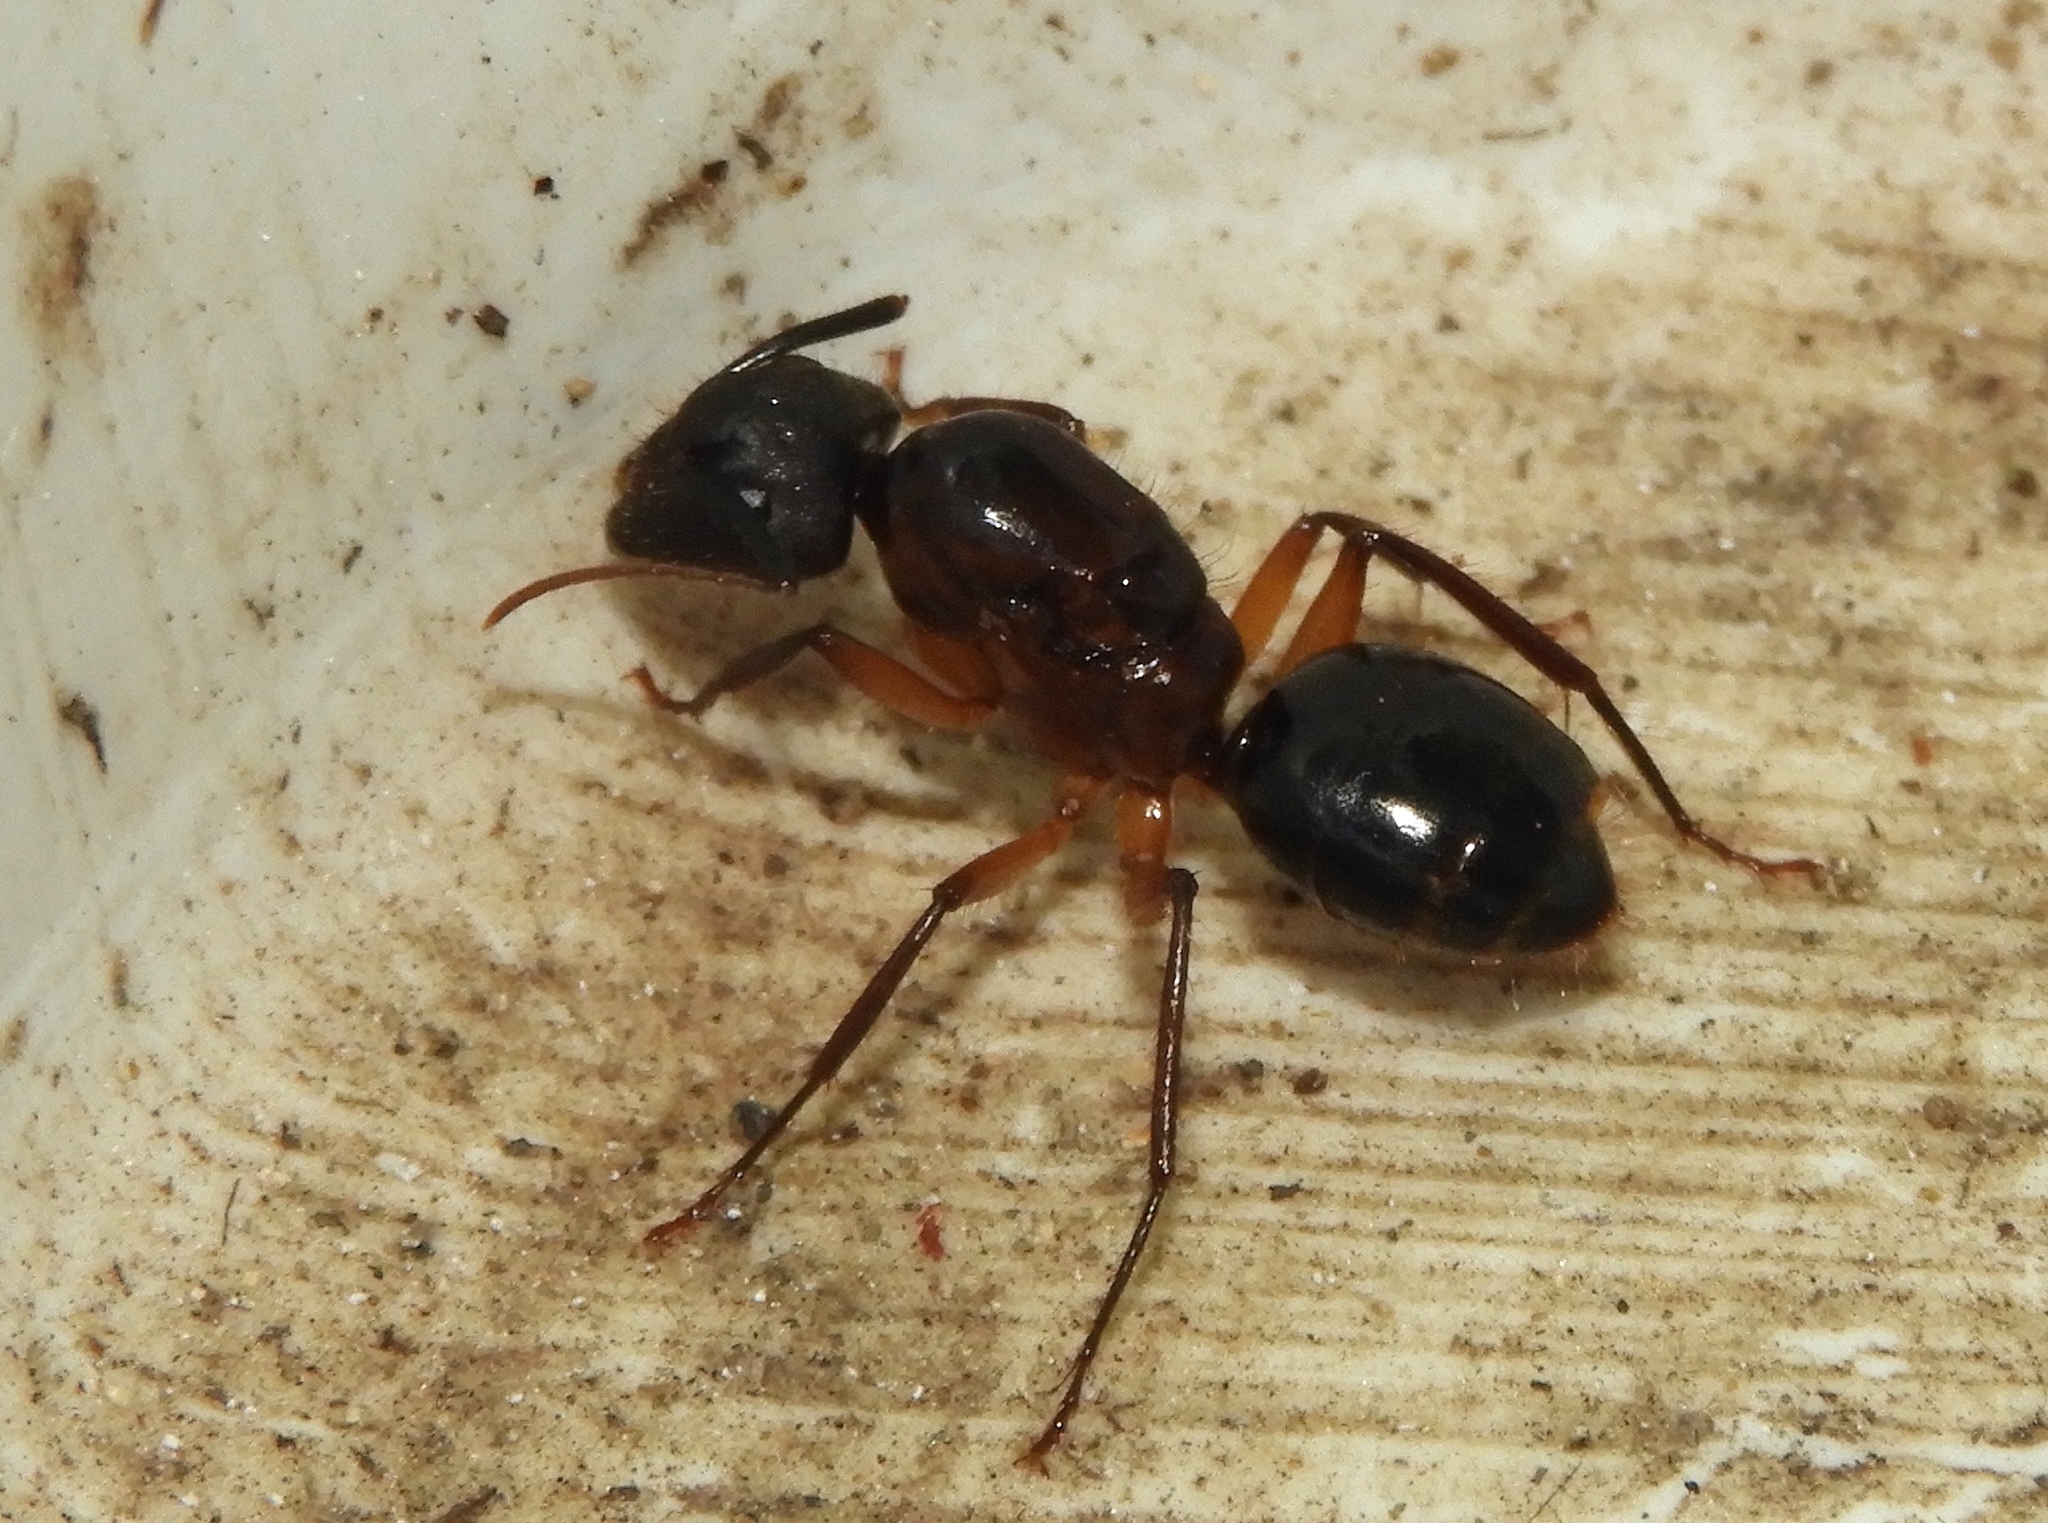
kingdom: Animalia
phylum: Arthropoda
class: Insecta
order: Hymenoptera
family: Formicidae
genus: Camponotus
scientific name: Camponotus atriceps
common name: Florida carpenter ant
